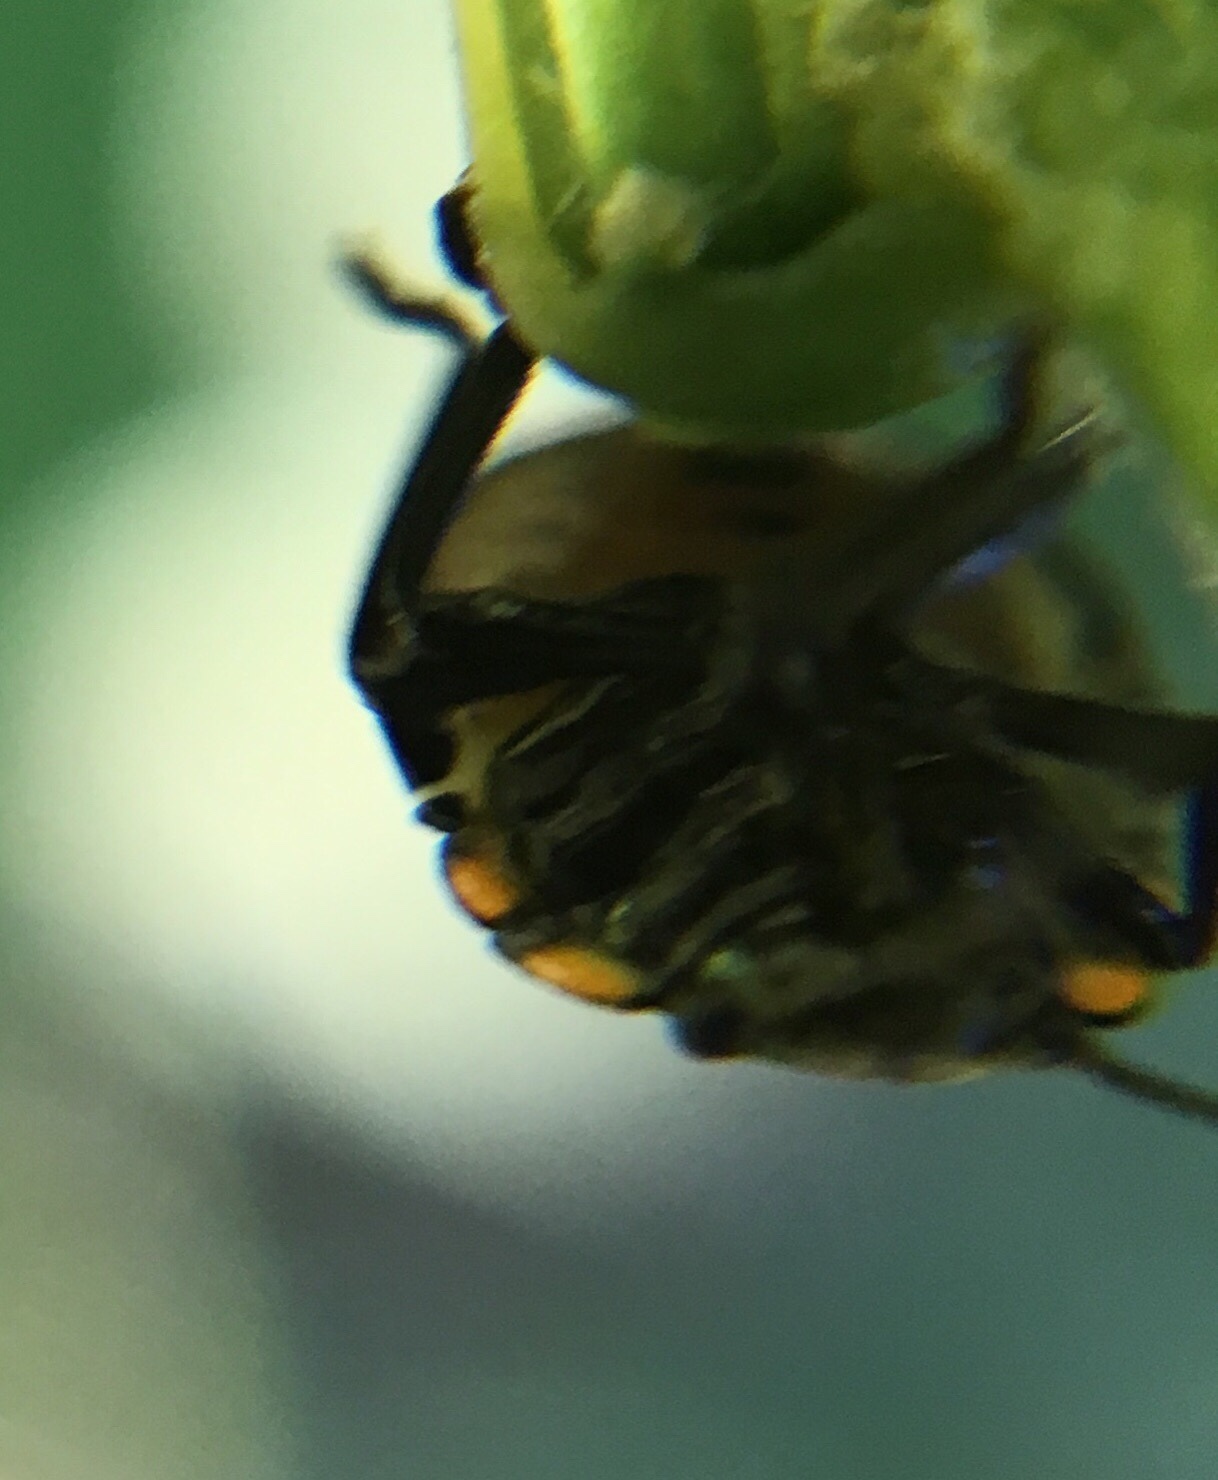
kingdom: Animalia
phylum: Arthropoda
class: Insecta
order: Hemiptera
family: Pentatomidae
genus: Nezara
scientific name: Nezara viridula
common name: Southern green stink bug
